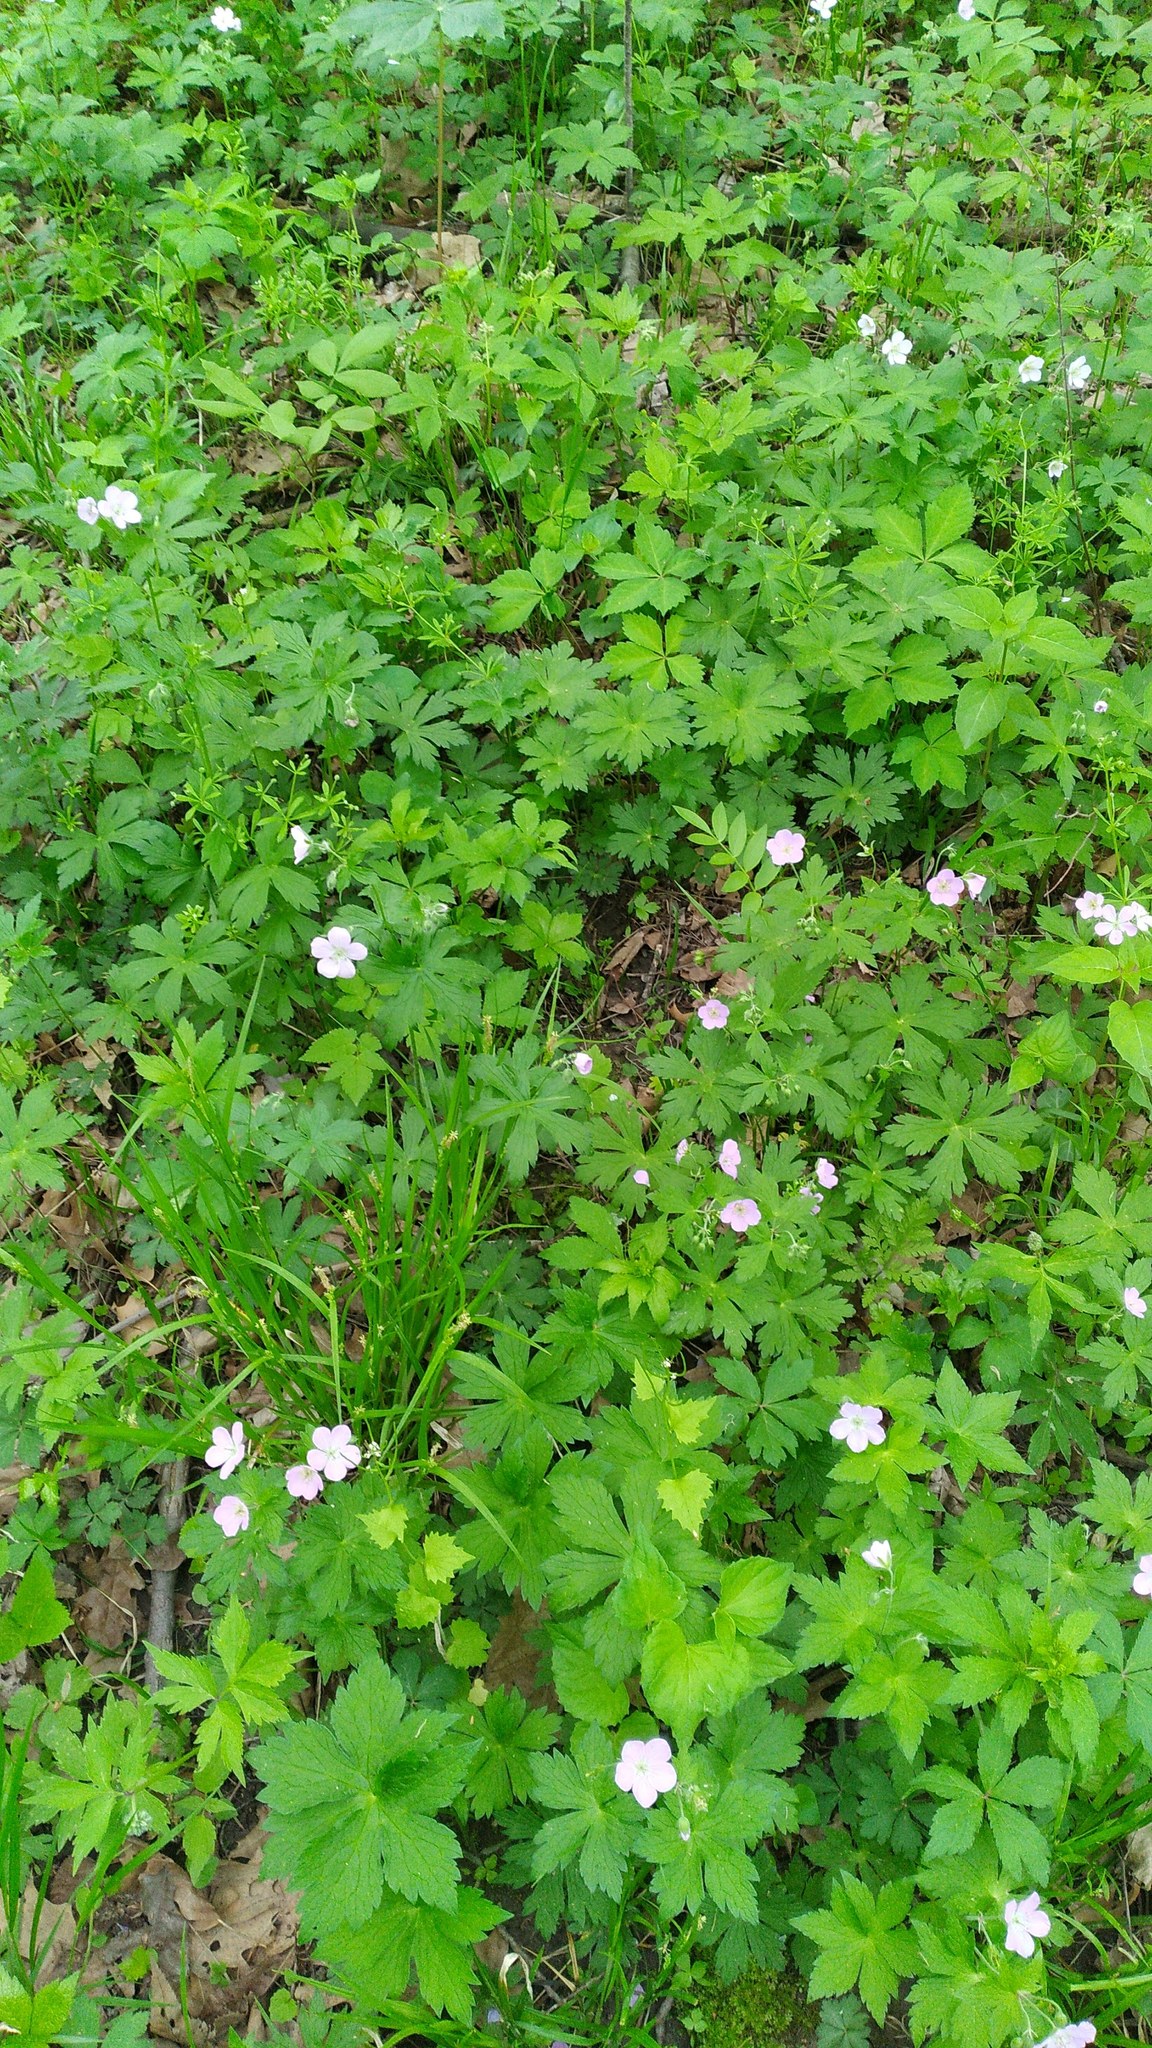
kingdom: Plantae
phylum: Tracheophyta
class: Magnoliopsida
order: Geraniales
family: Geraniaceae
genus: Geranium
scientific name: Geranium maculatum
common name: Spotted geranium
